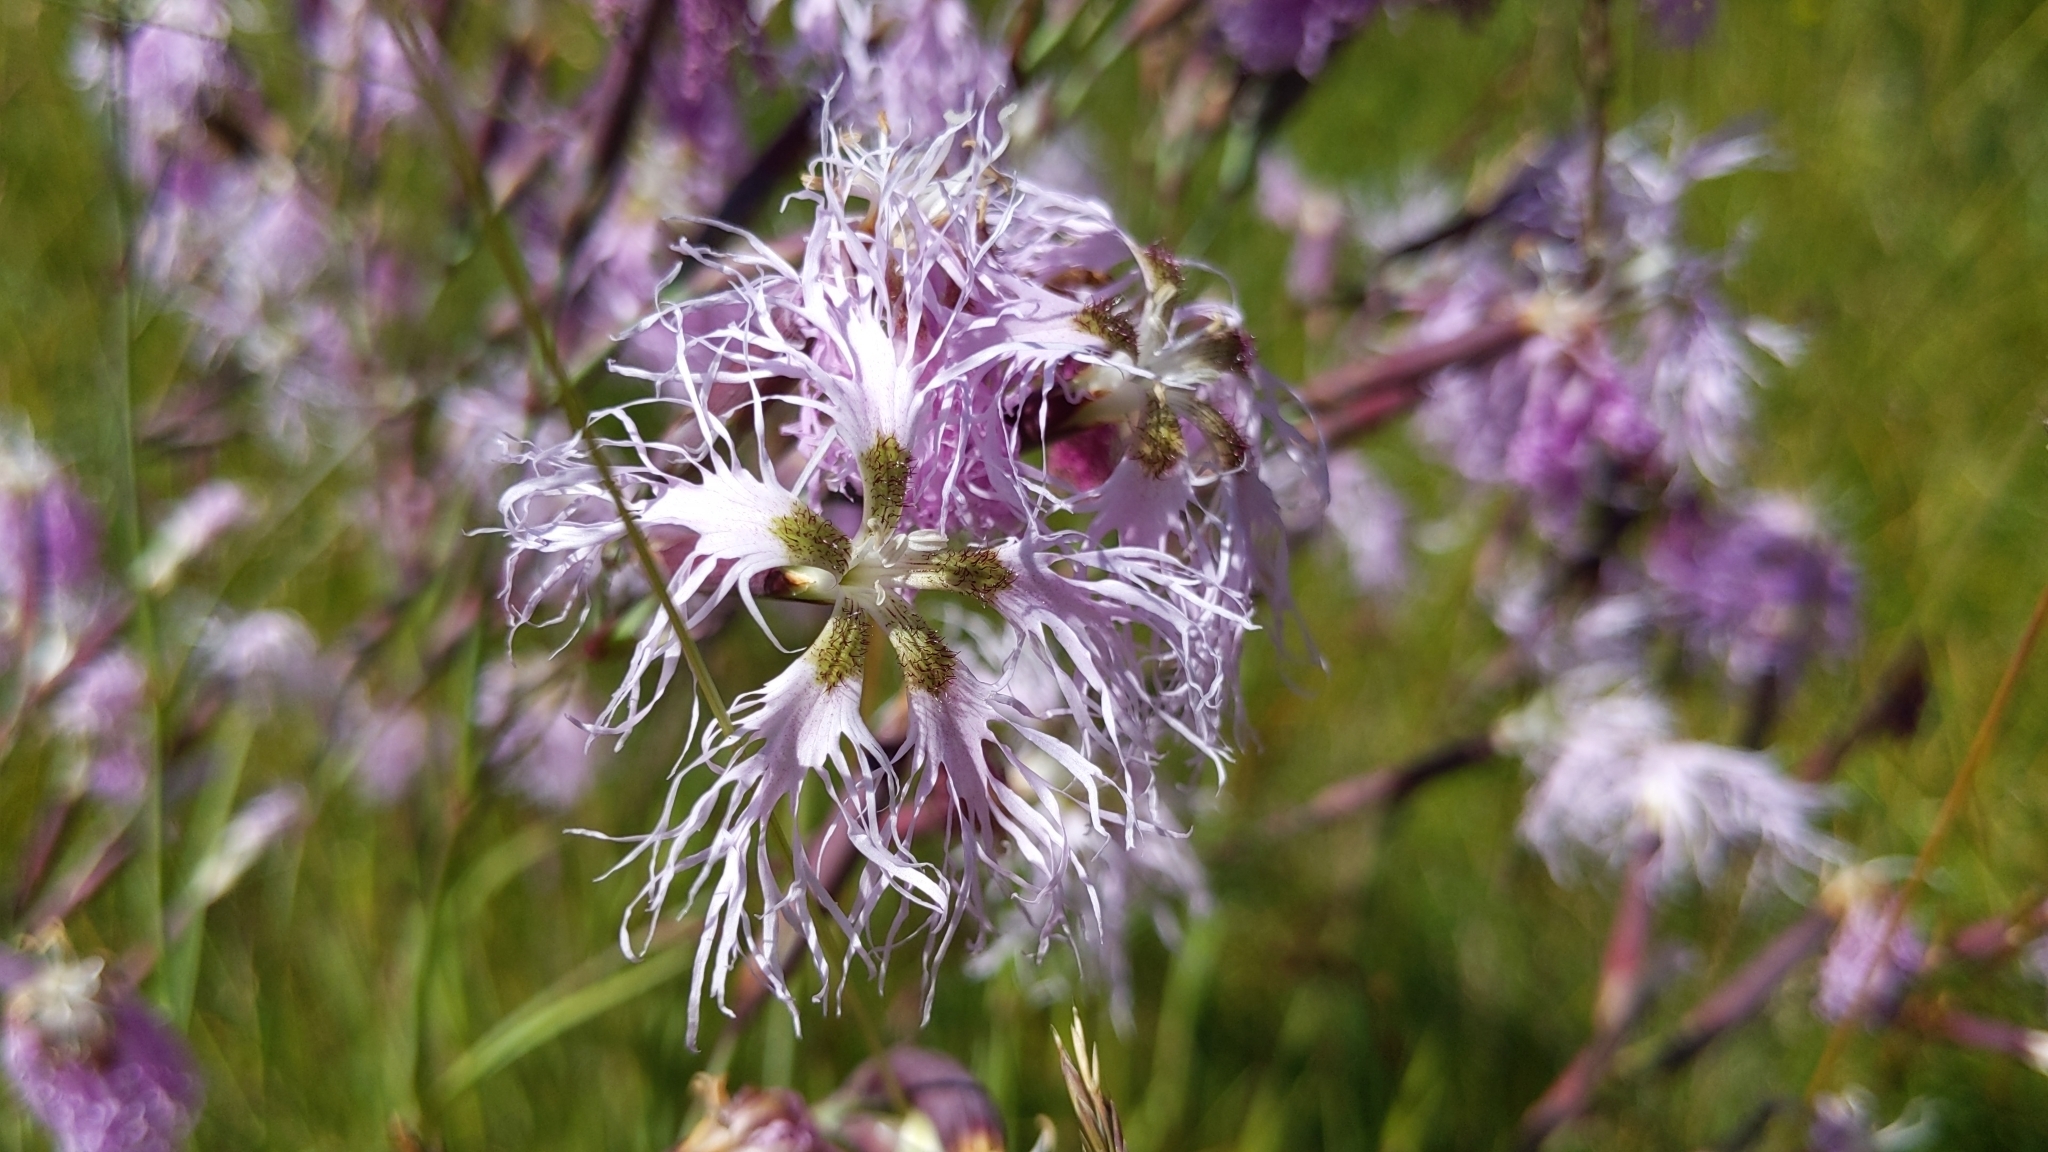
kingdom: Plantae
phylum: Tracheophyta
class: Magnoliopsida
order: Caryophyllales
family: Caryophyllaceae
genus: Dianthus
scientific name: Dianthus superbus
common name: Fringed pink
